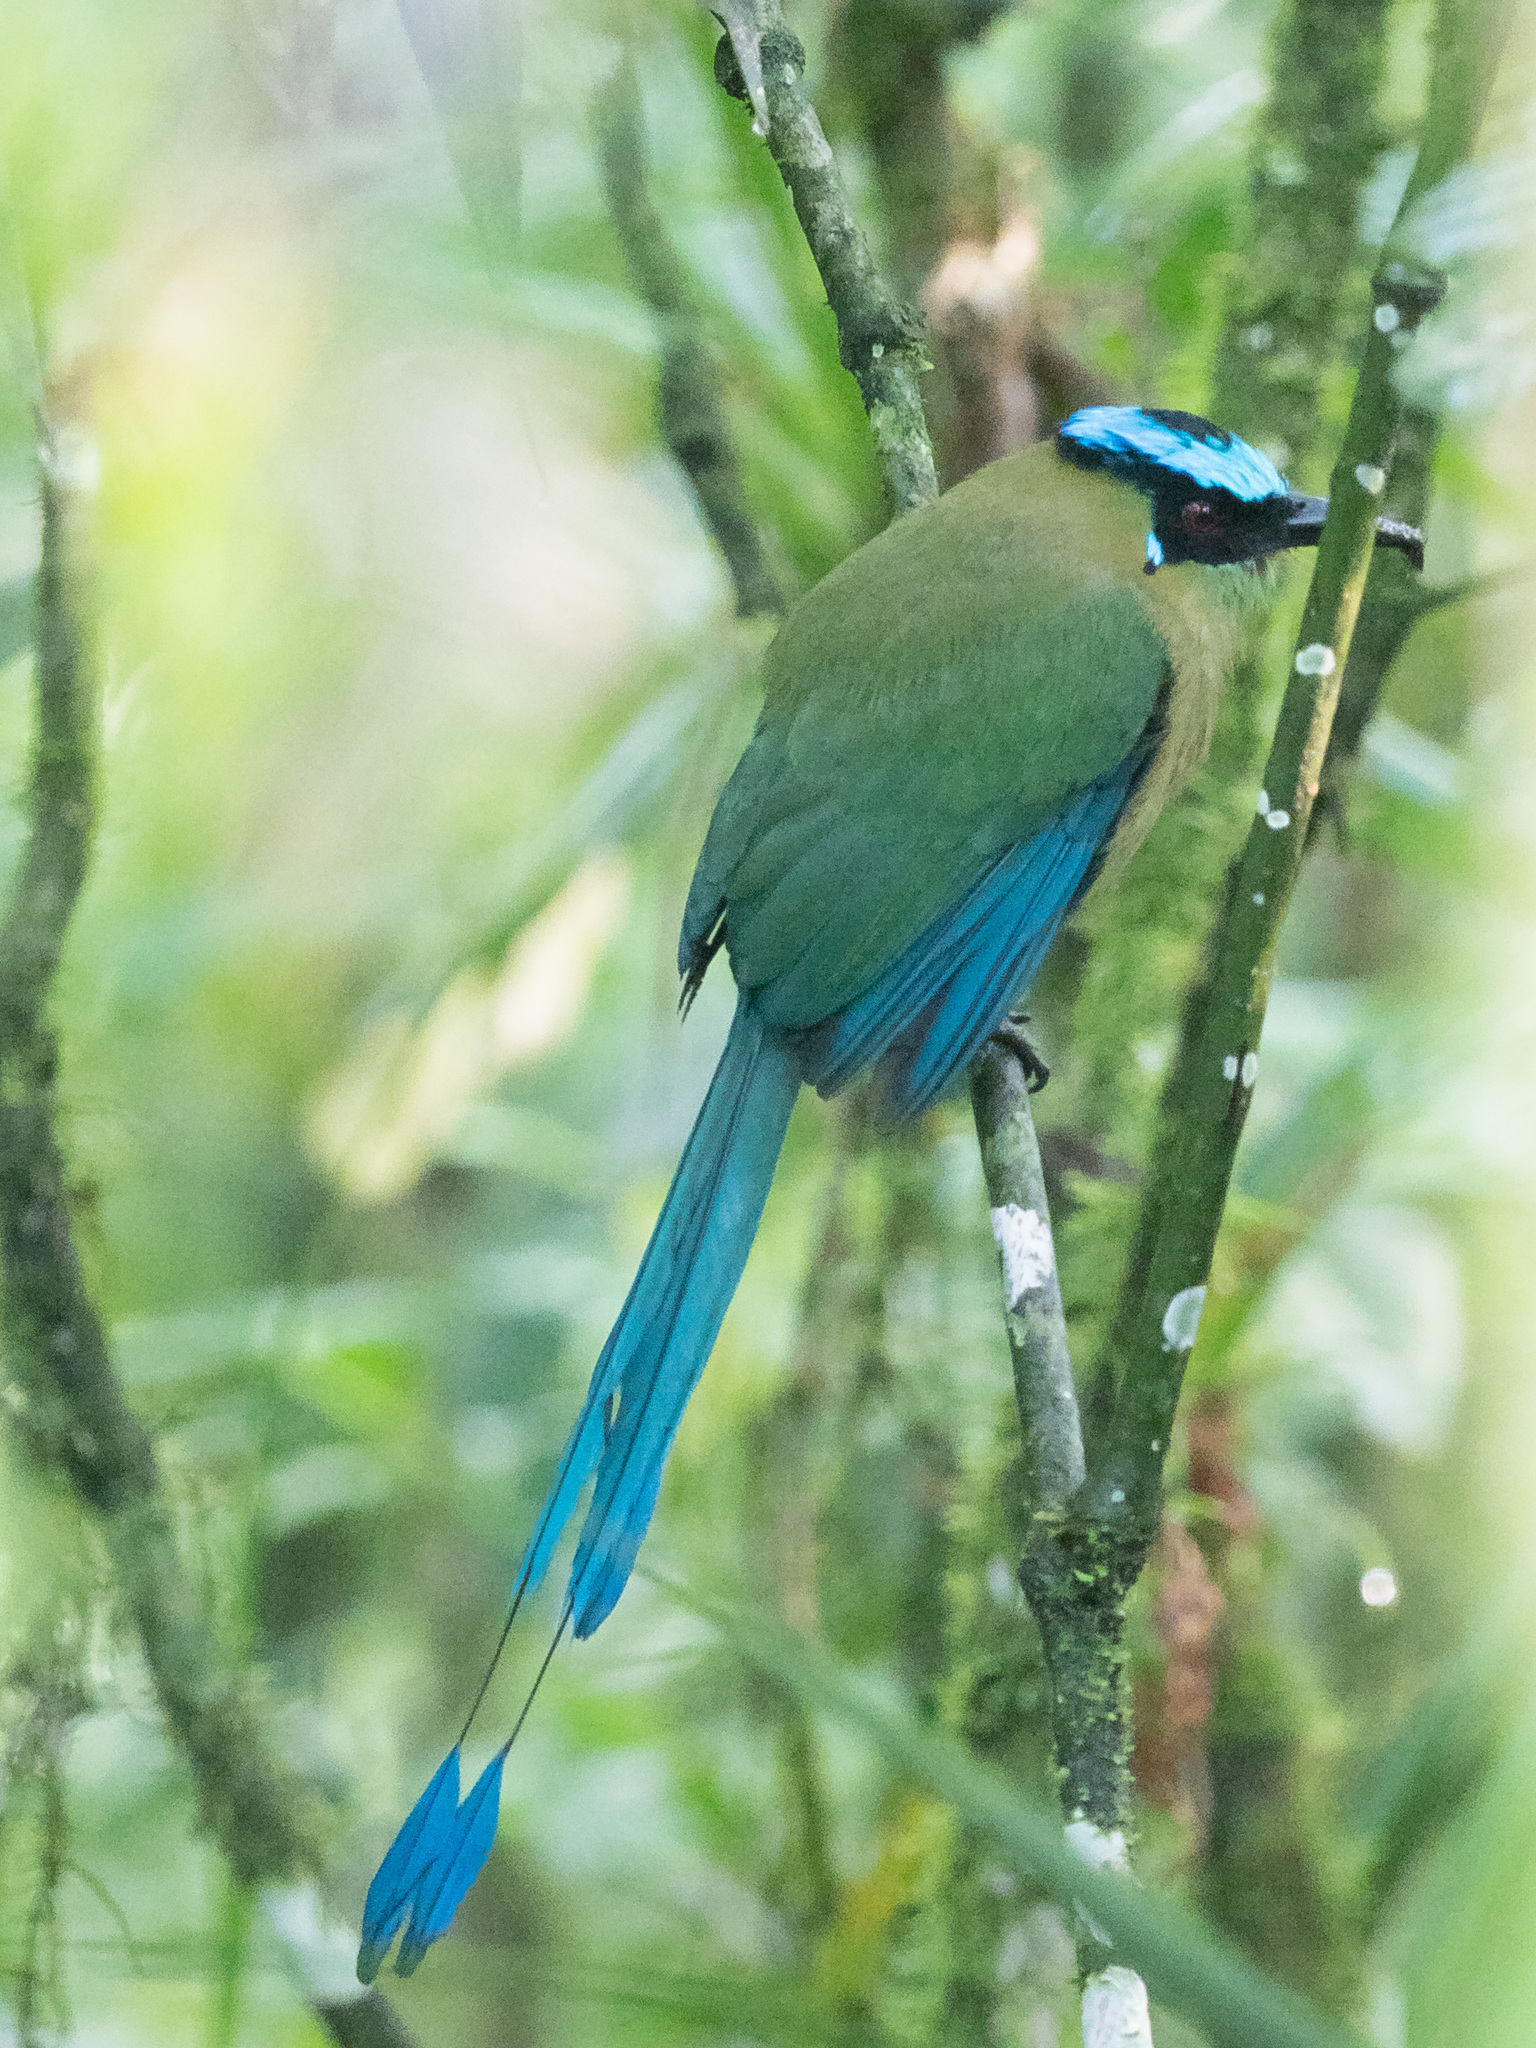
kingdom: Animalia
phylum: Chordata
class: Aves
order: Coraciiformes
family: Momotidae
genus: Momotus
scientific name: Momotus aequatorialis
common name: Andean motmot
